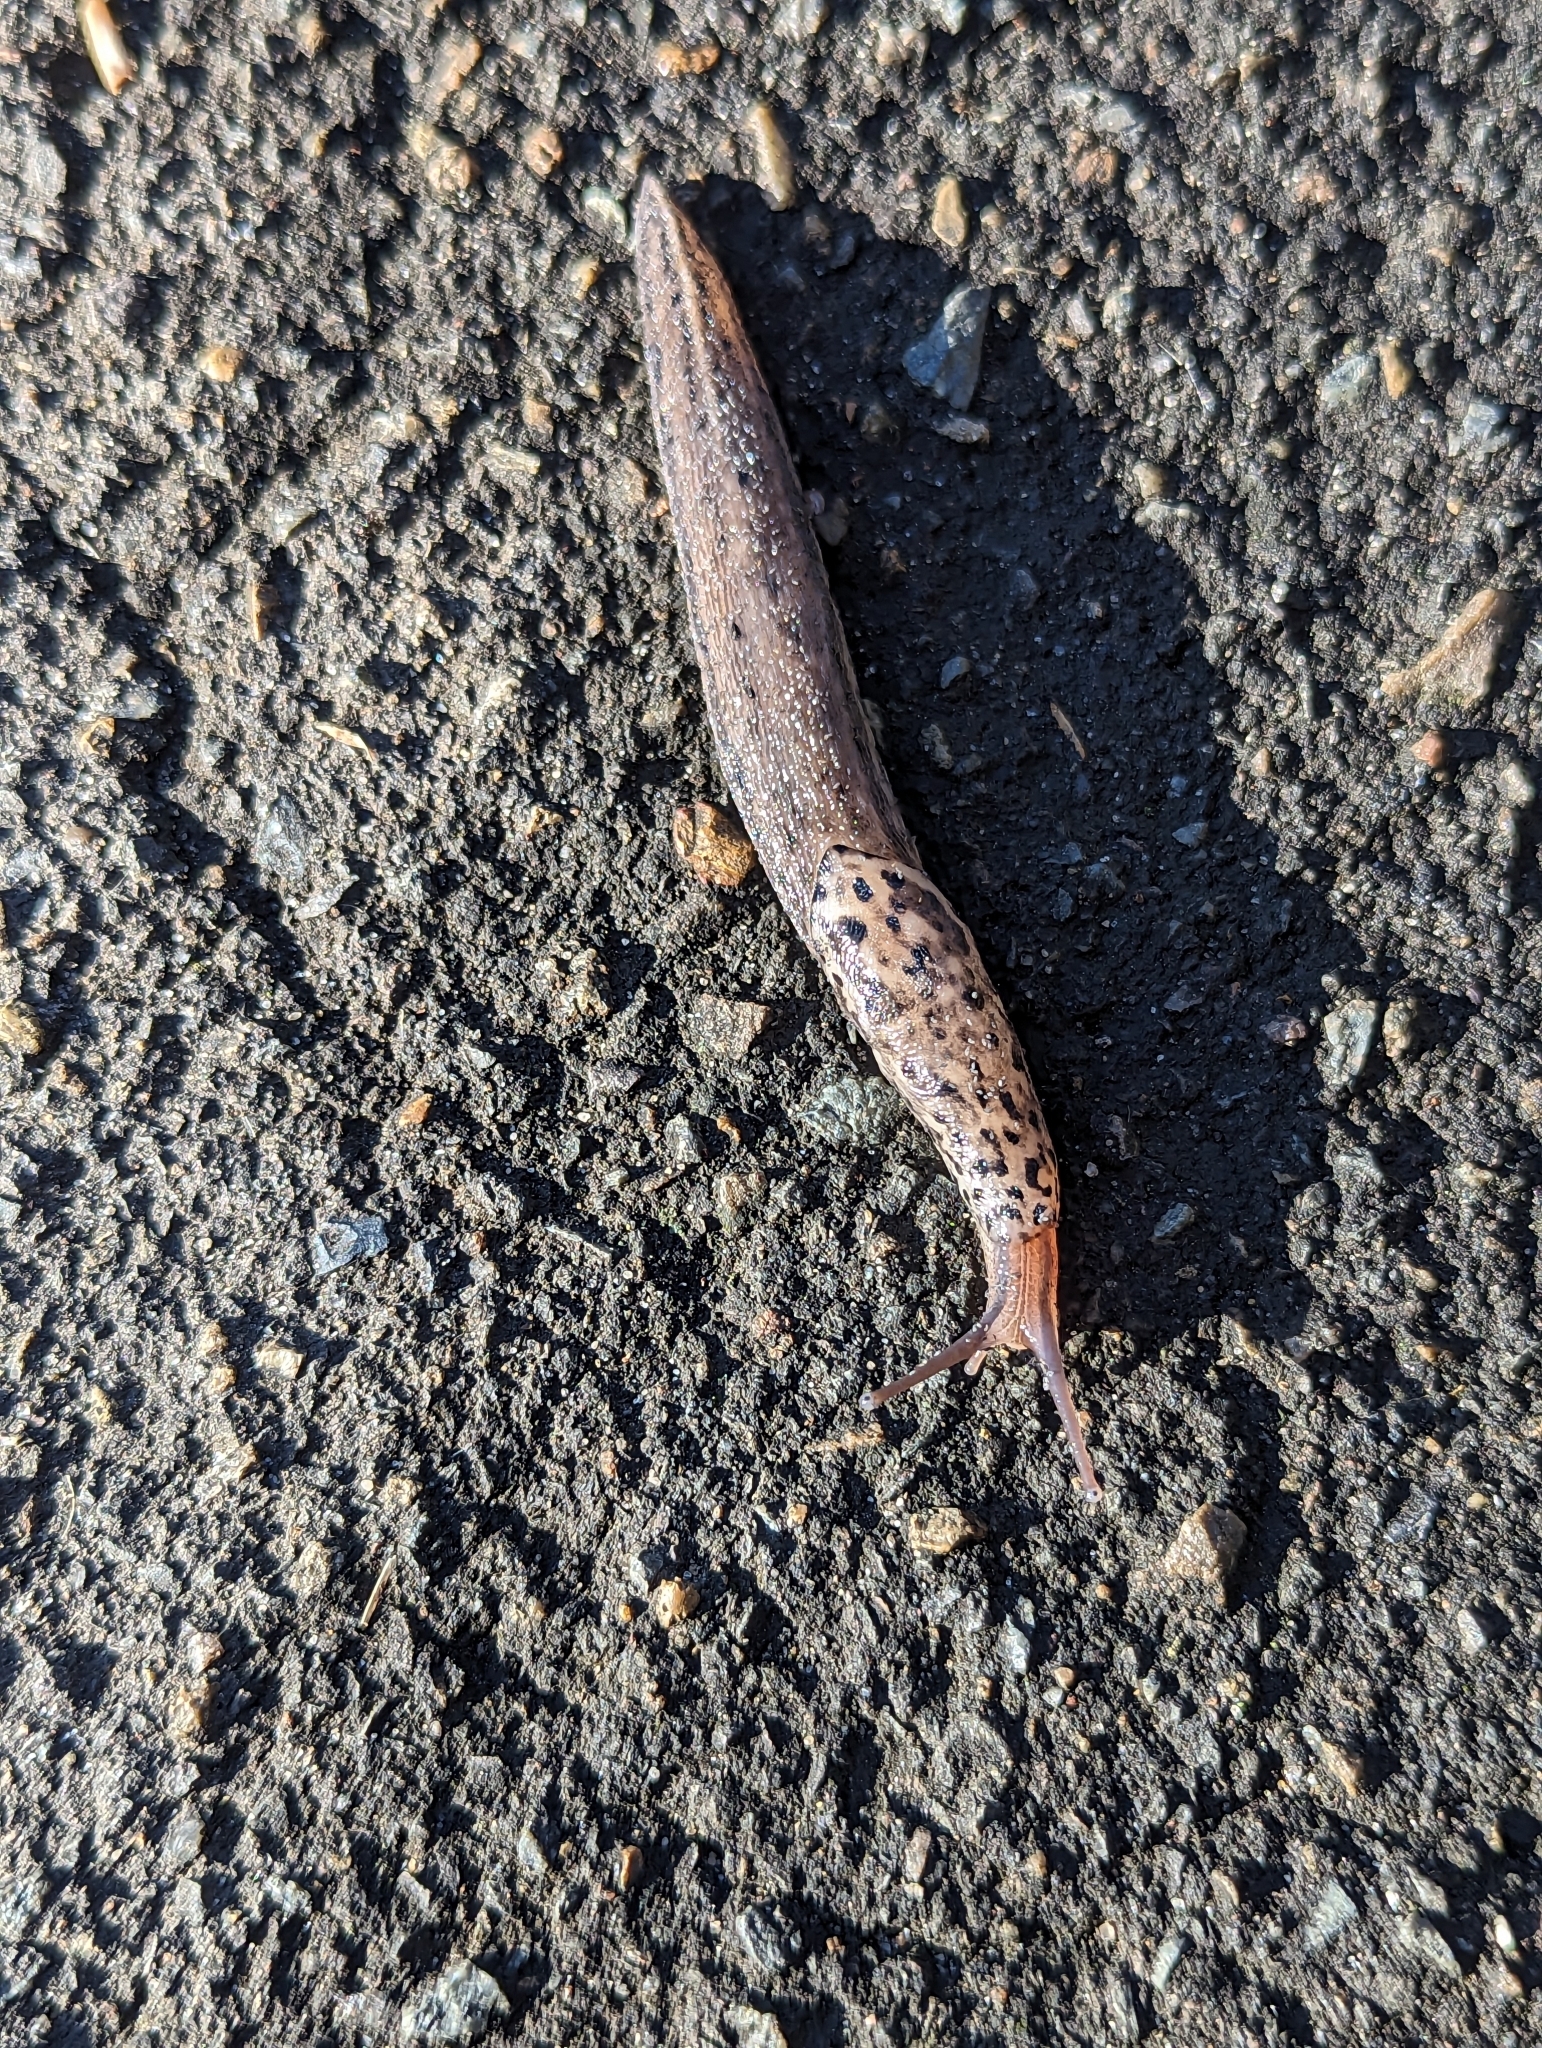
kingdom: Animalia
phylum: Mollusca
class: Gastropoda
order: Stylommatophora
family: Limacidae
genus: Limax
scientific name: Limax maximus
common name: Great grey slug
